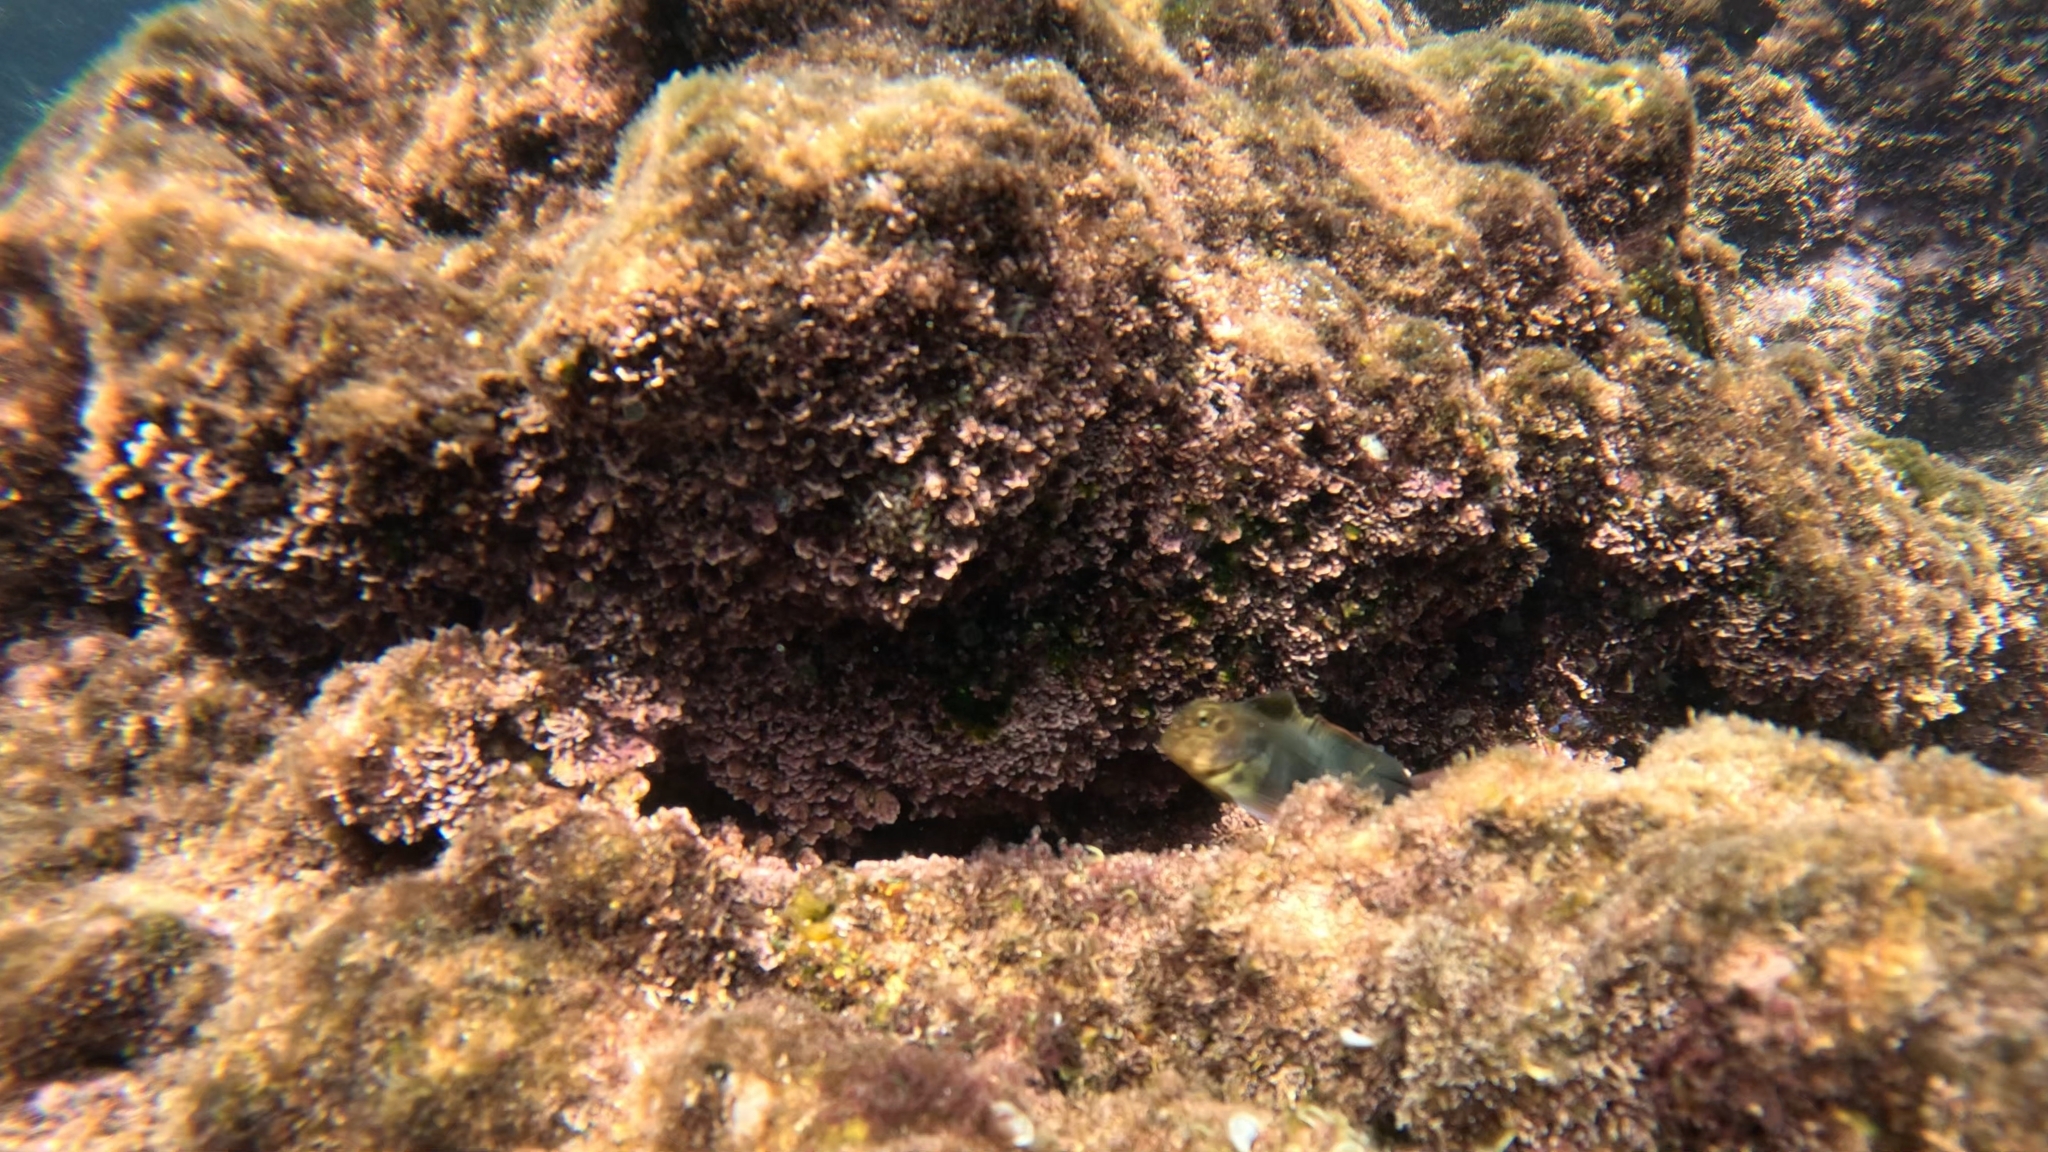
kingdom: Animalia
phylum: Chordata
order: Perciformes
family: Blenniidae
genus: Ophioblennius
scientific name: Ophioblennius atlanticus
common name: Redlip blenny
